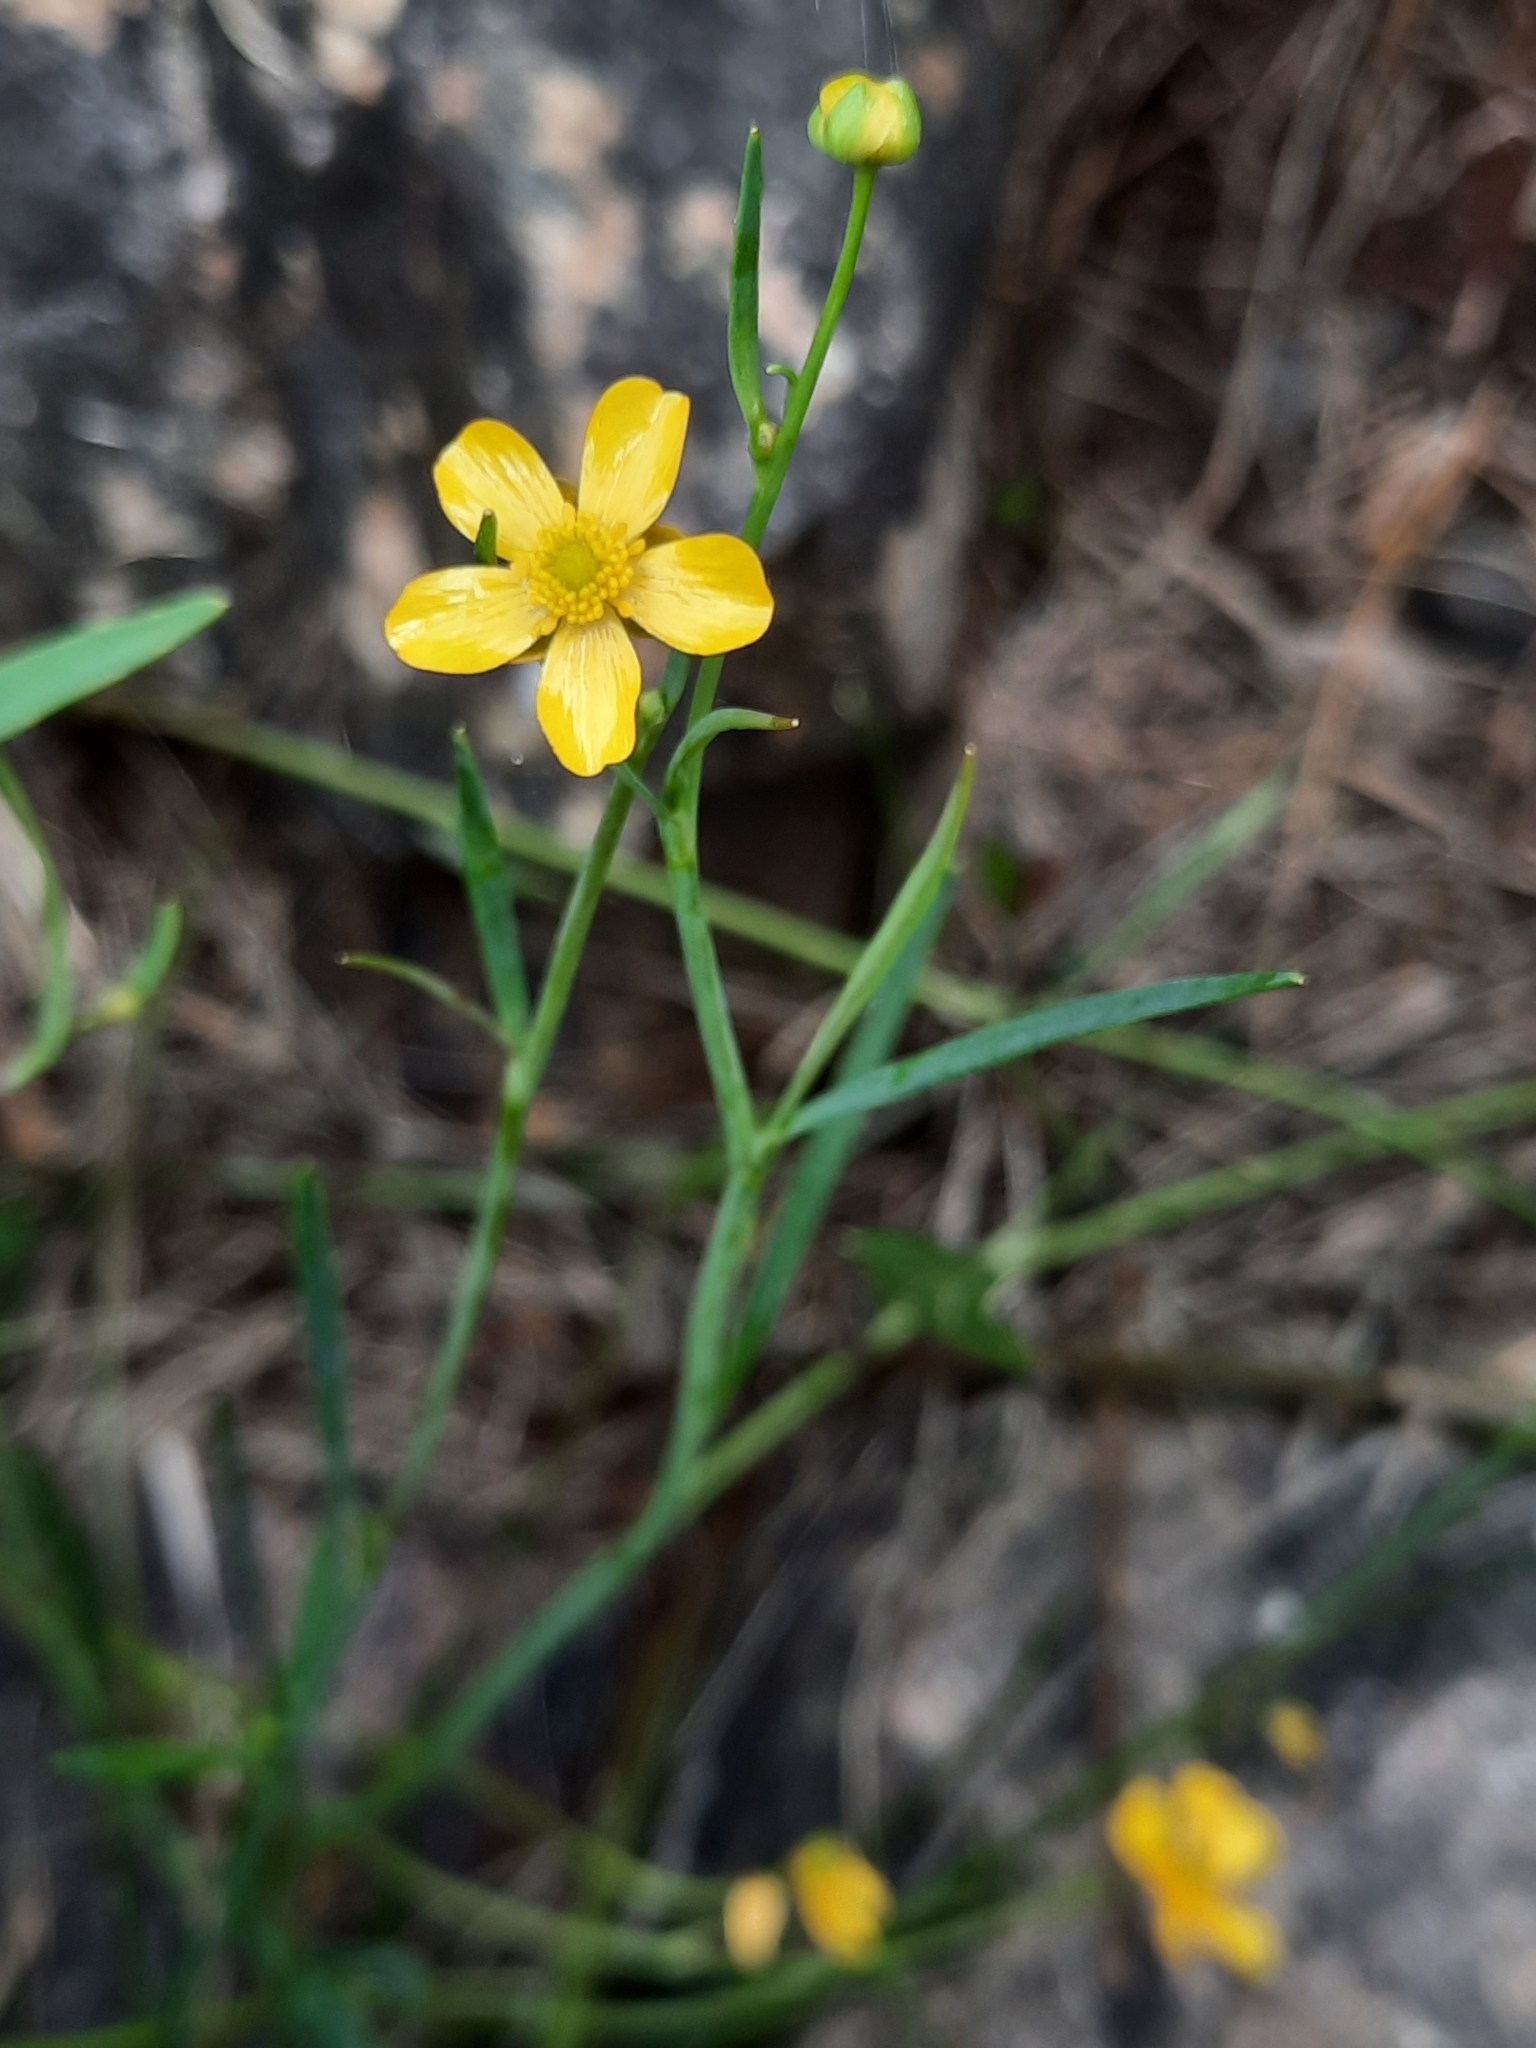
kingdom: Plantae
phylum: Tracheophyta
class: Magnoliopsida
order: Ranunculales
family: Ranunculaceae
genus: Ranunculus
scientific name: Ranunculus flammula
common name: Lesser spearwort
